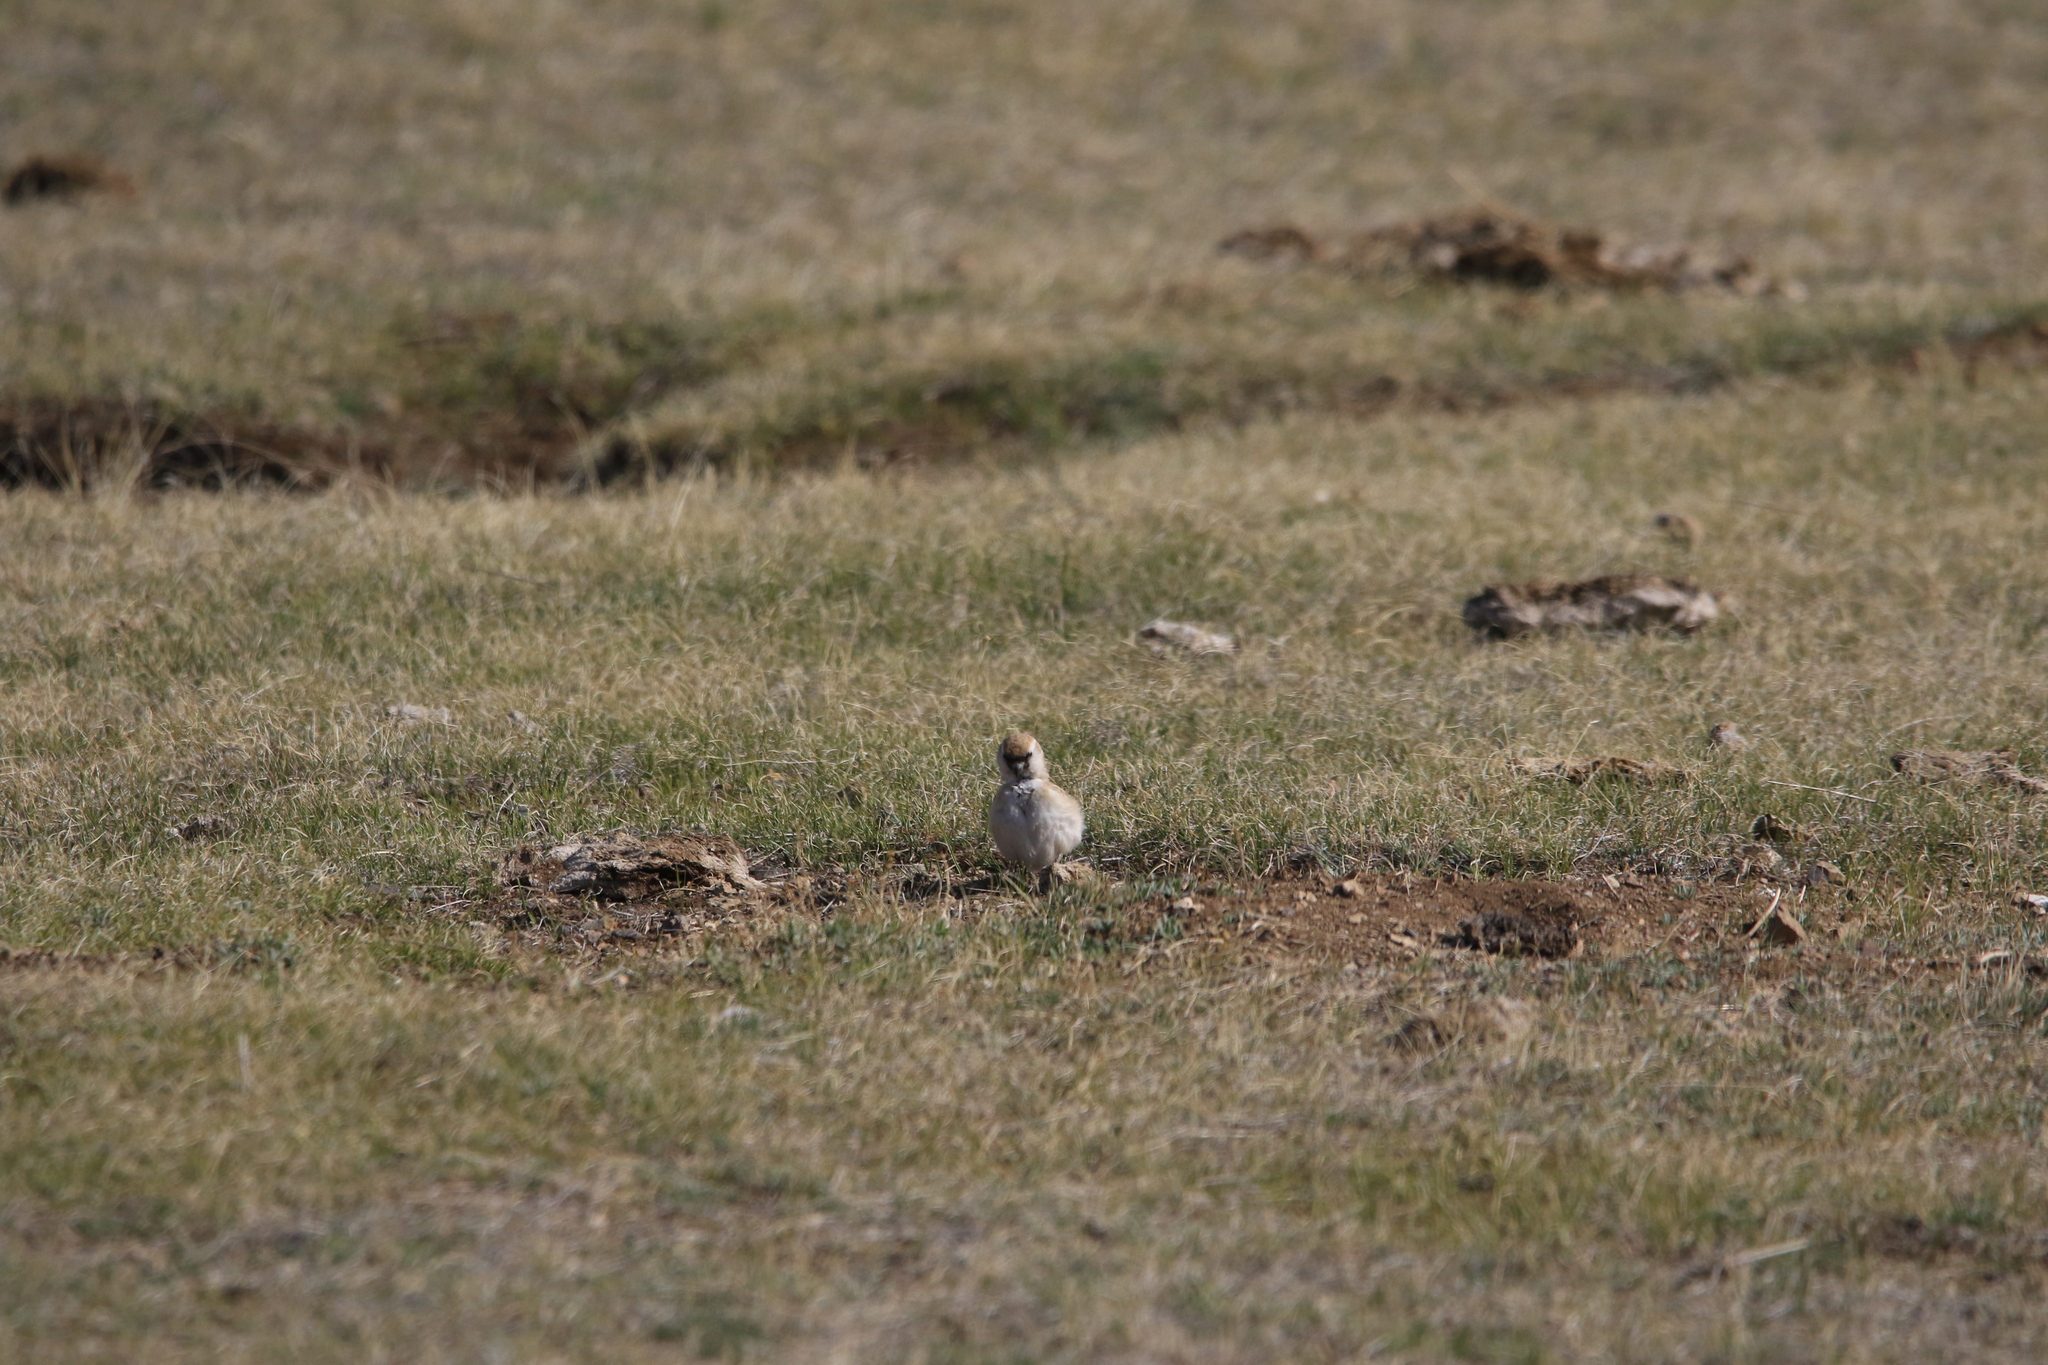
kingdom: Animalia
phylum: Chordata
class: Aves
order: Passeriformes
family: Passeridae
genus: Pyrgilauda
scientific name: Pyrgilauda davidiana
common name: Pere david's snowfinch
